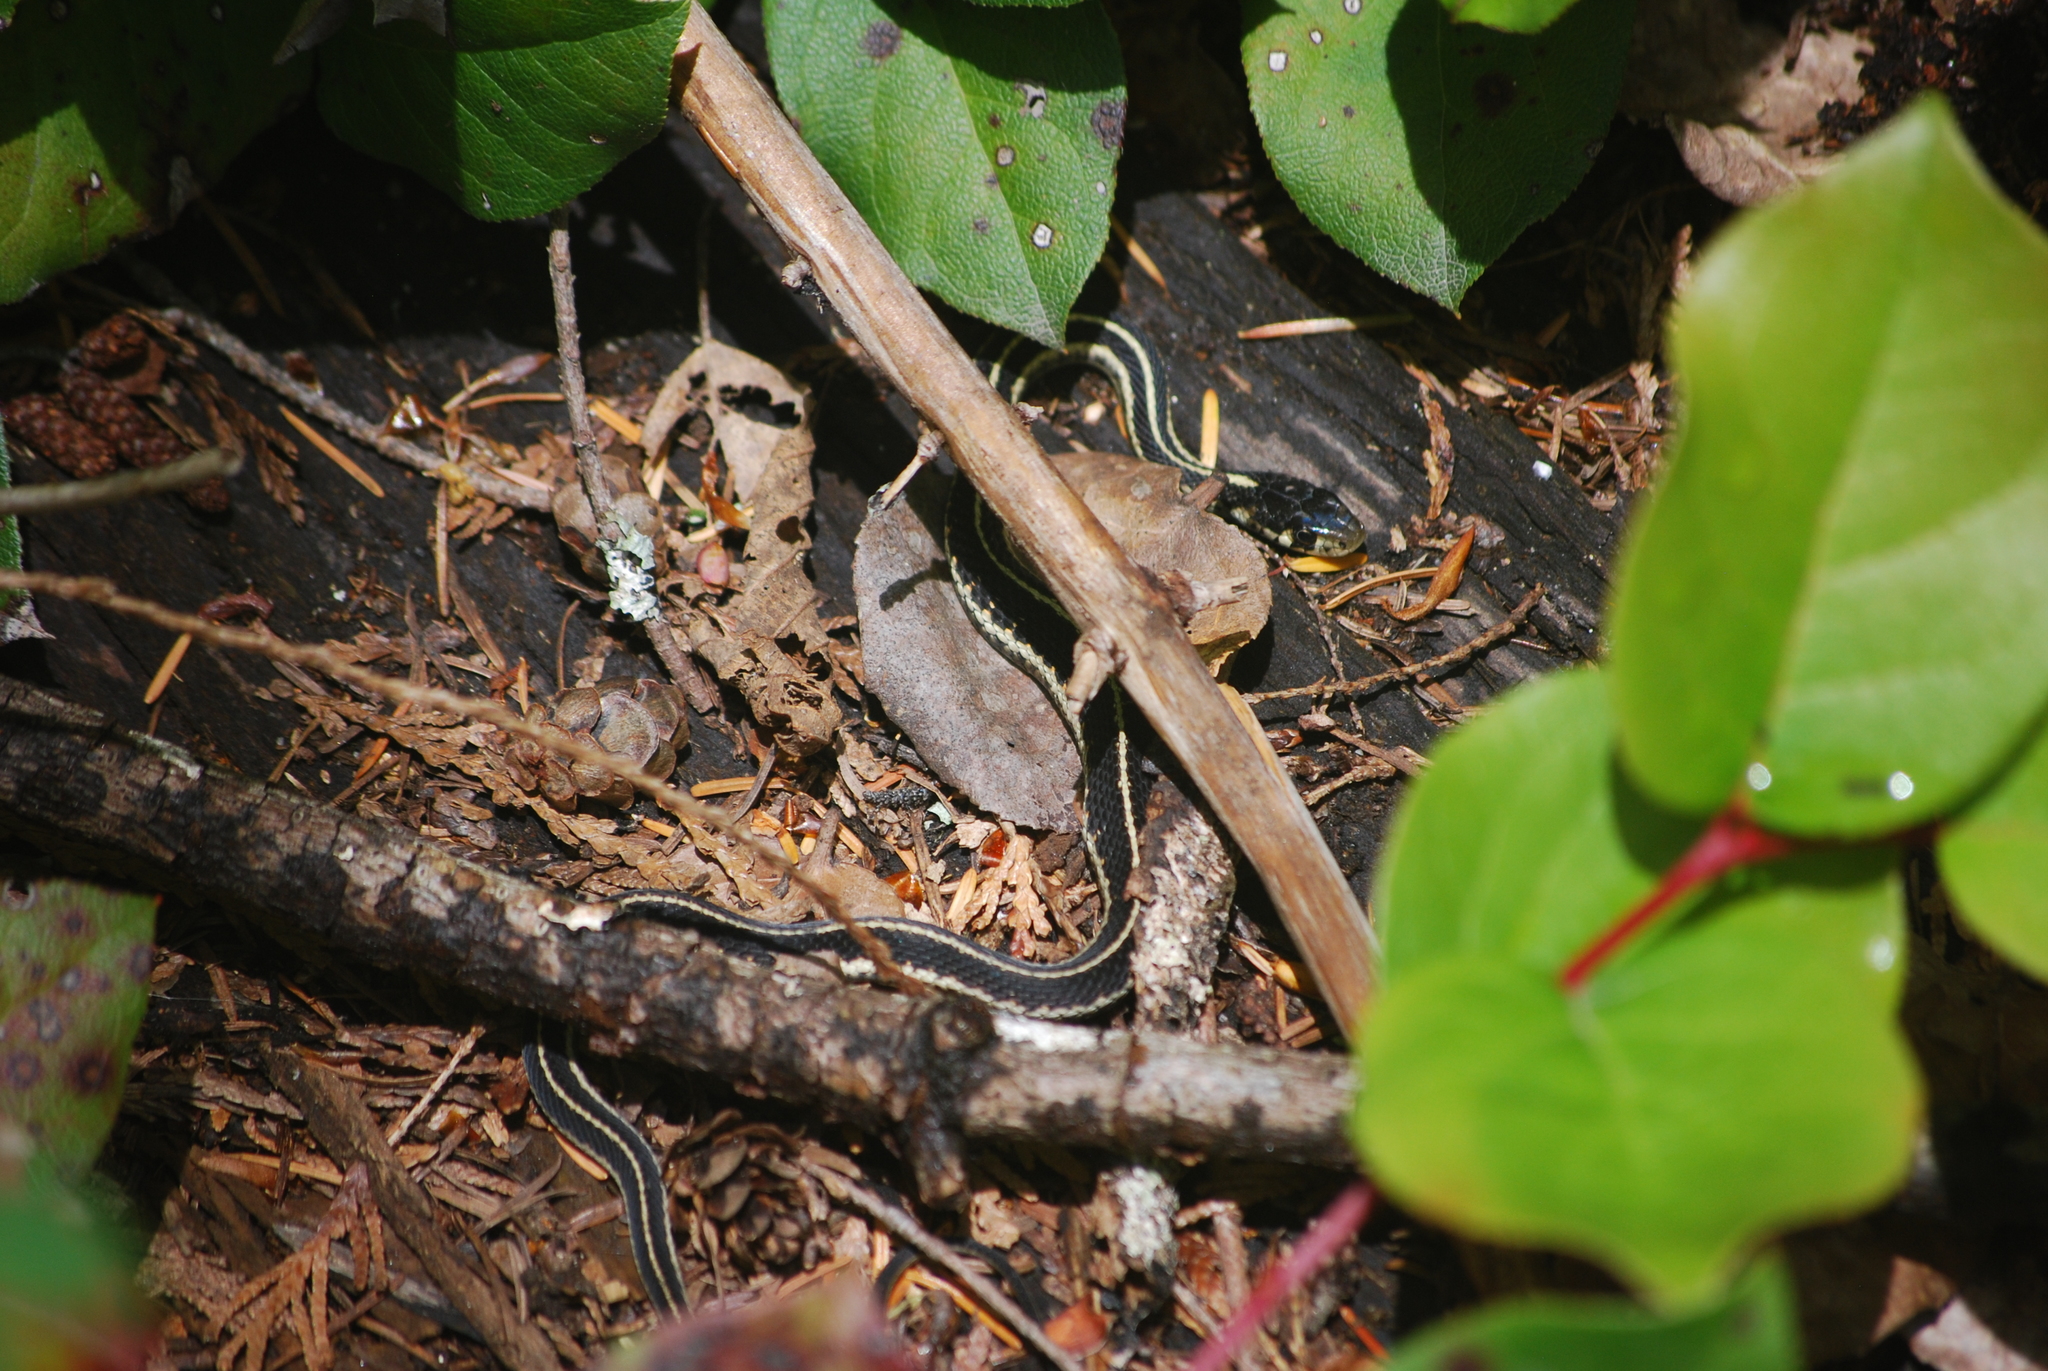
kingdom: Animalia
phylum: Chordata
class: Squamata
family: Colubridae
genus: Thamnophis
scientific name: Thamnophis sirtalis
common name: Common garter snake
